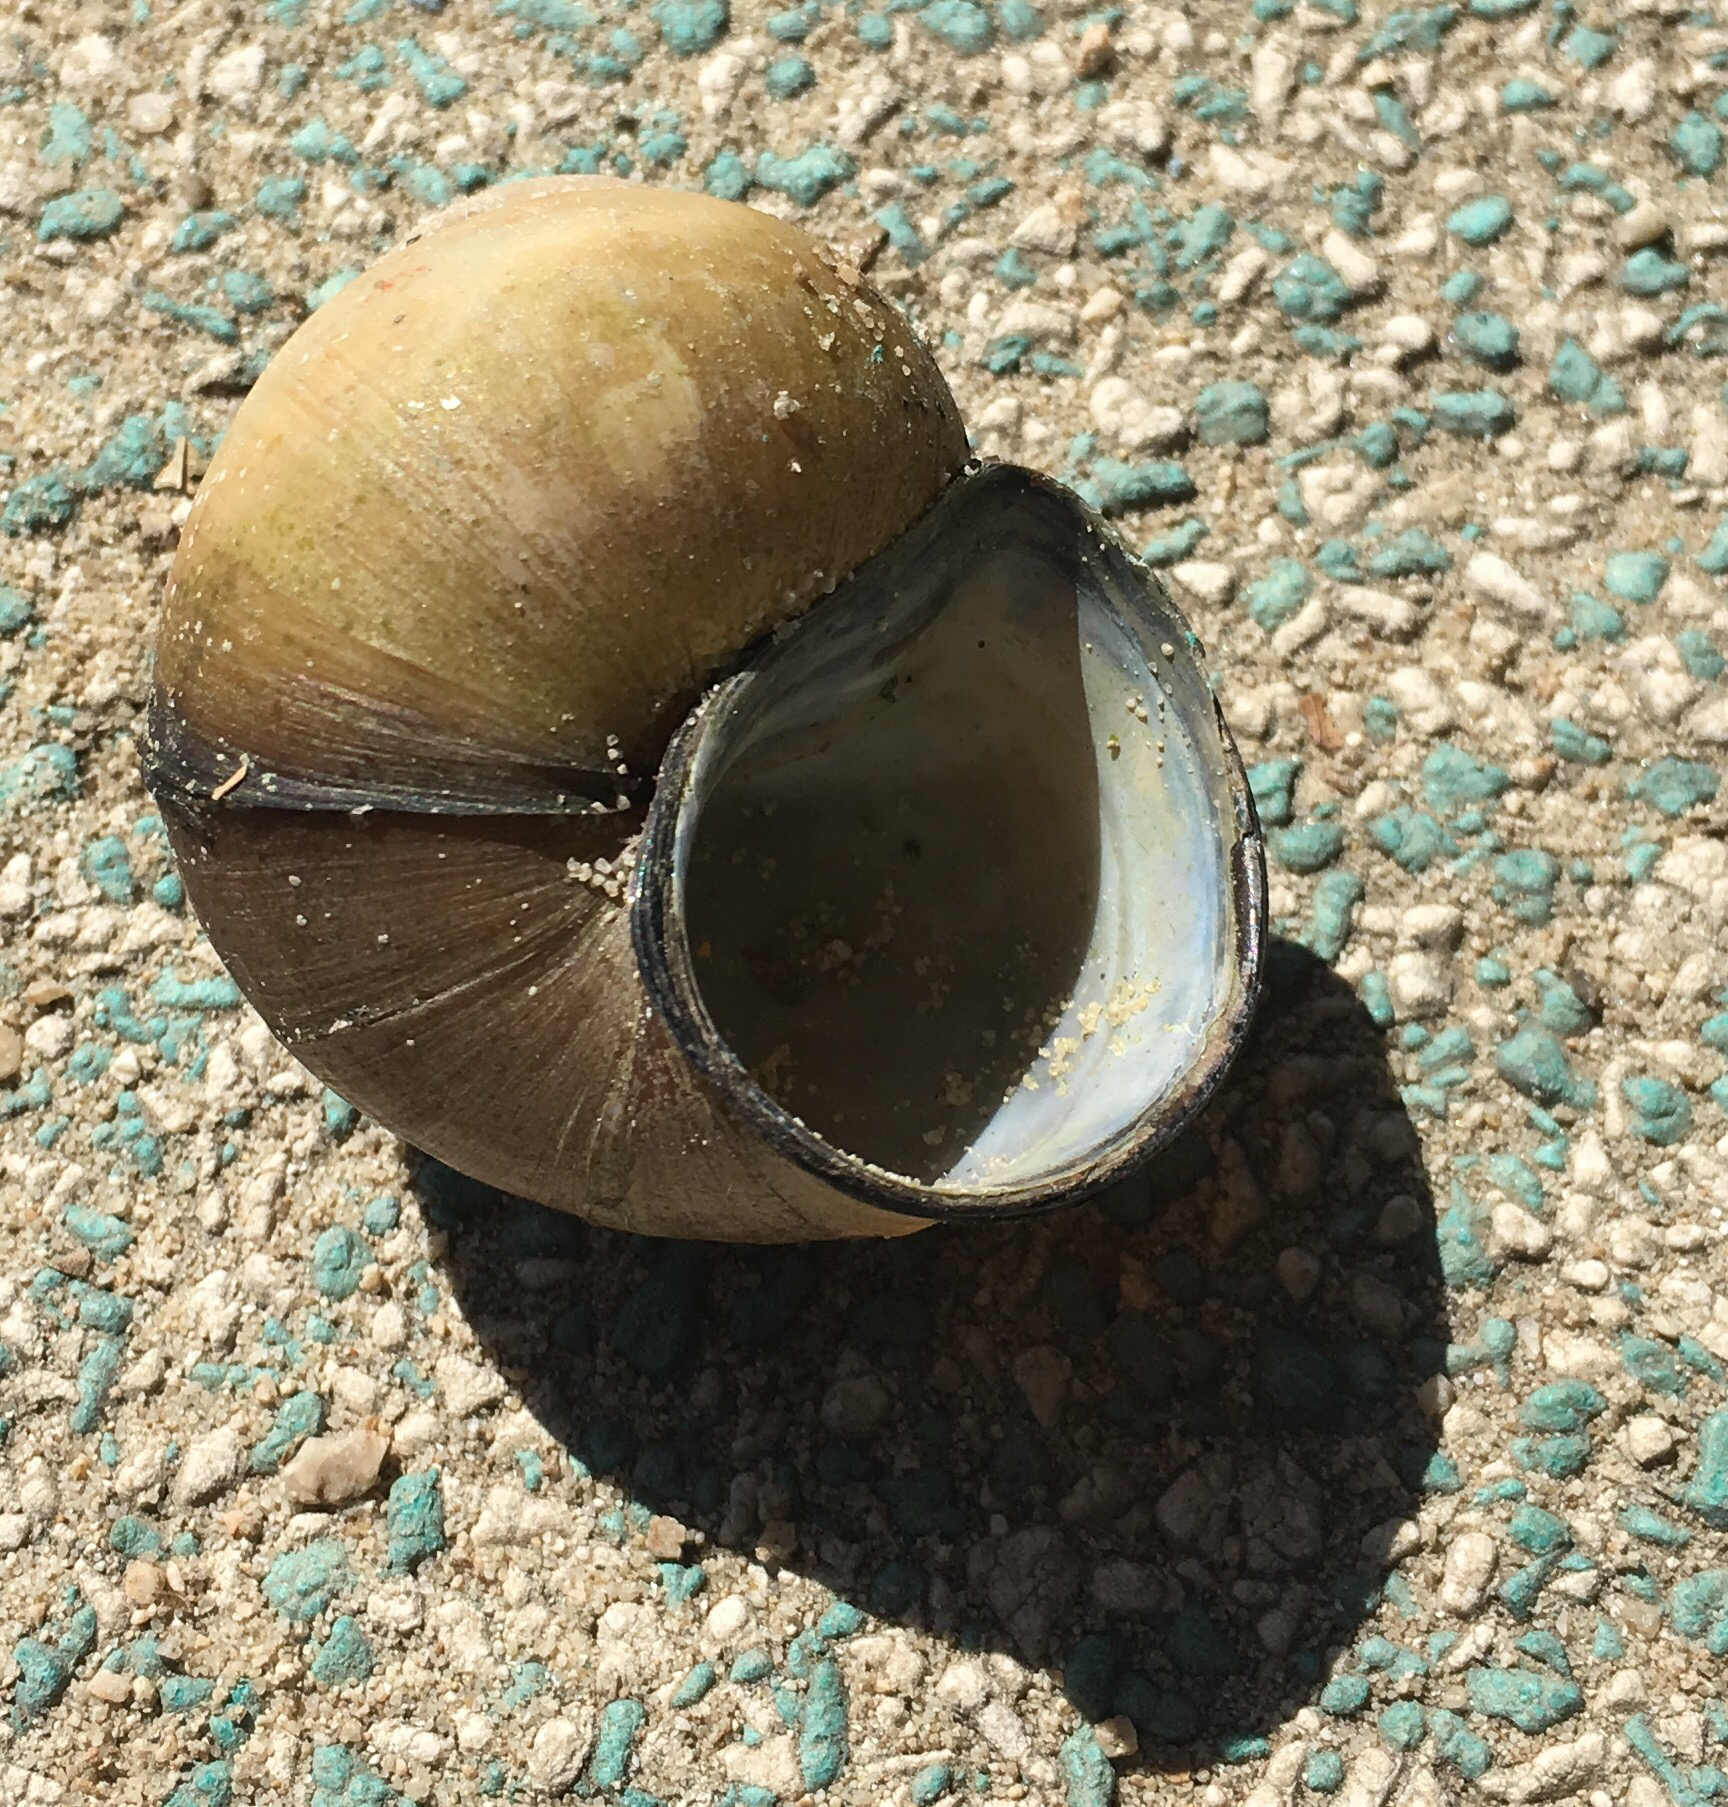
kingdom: Animalia
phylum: Mollusca
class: Gastropoda
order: Architaenioglossa
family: Viviparidae
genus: Cipangopaludina
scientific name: Cipangopaludina chinensis
